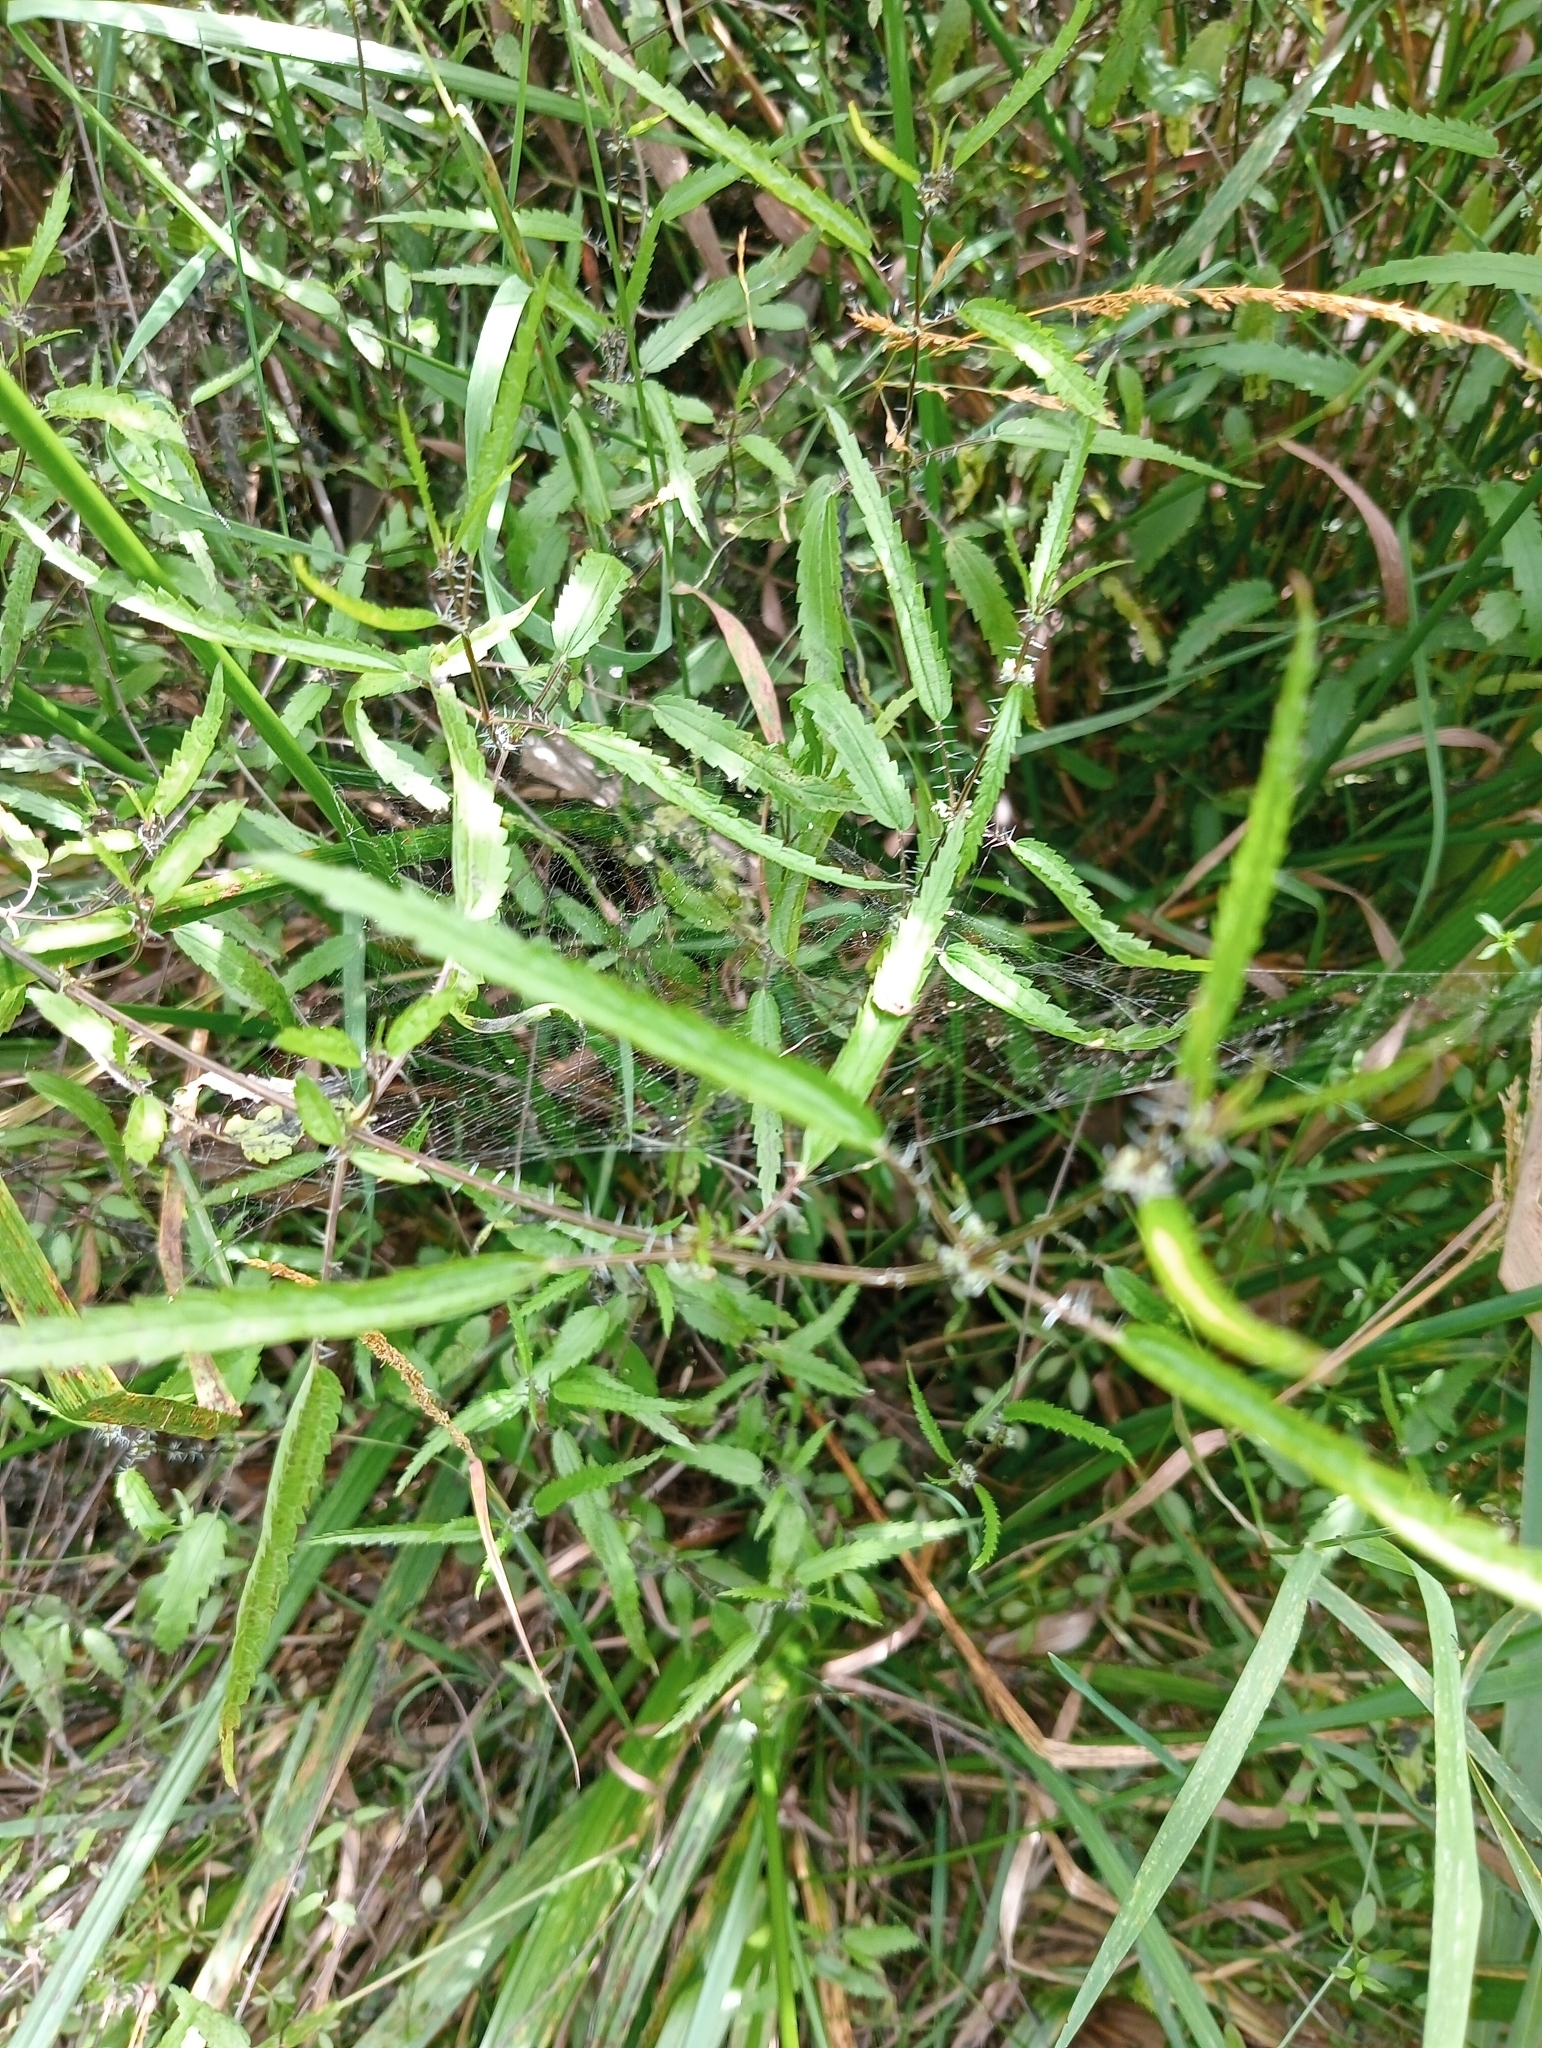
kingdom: Plantae
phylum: Tracheophyta
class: Magnoliopsida
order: Rosales
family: Urticaceae
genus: Urtica
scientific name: Urtica perconfusa
